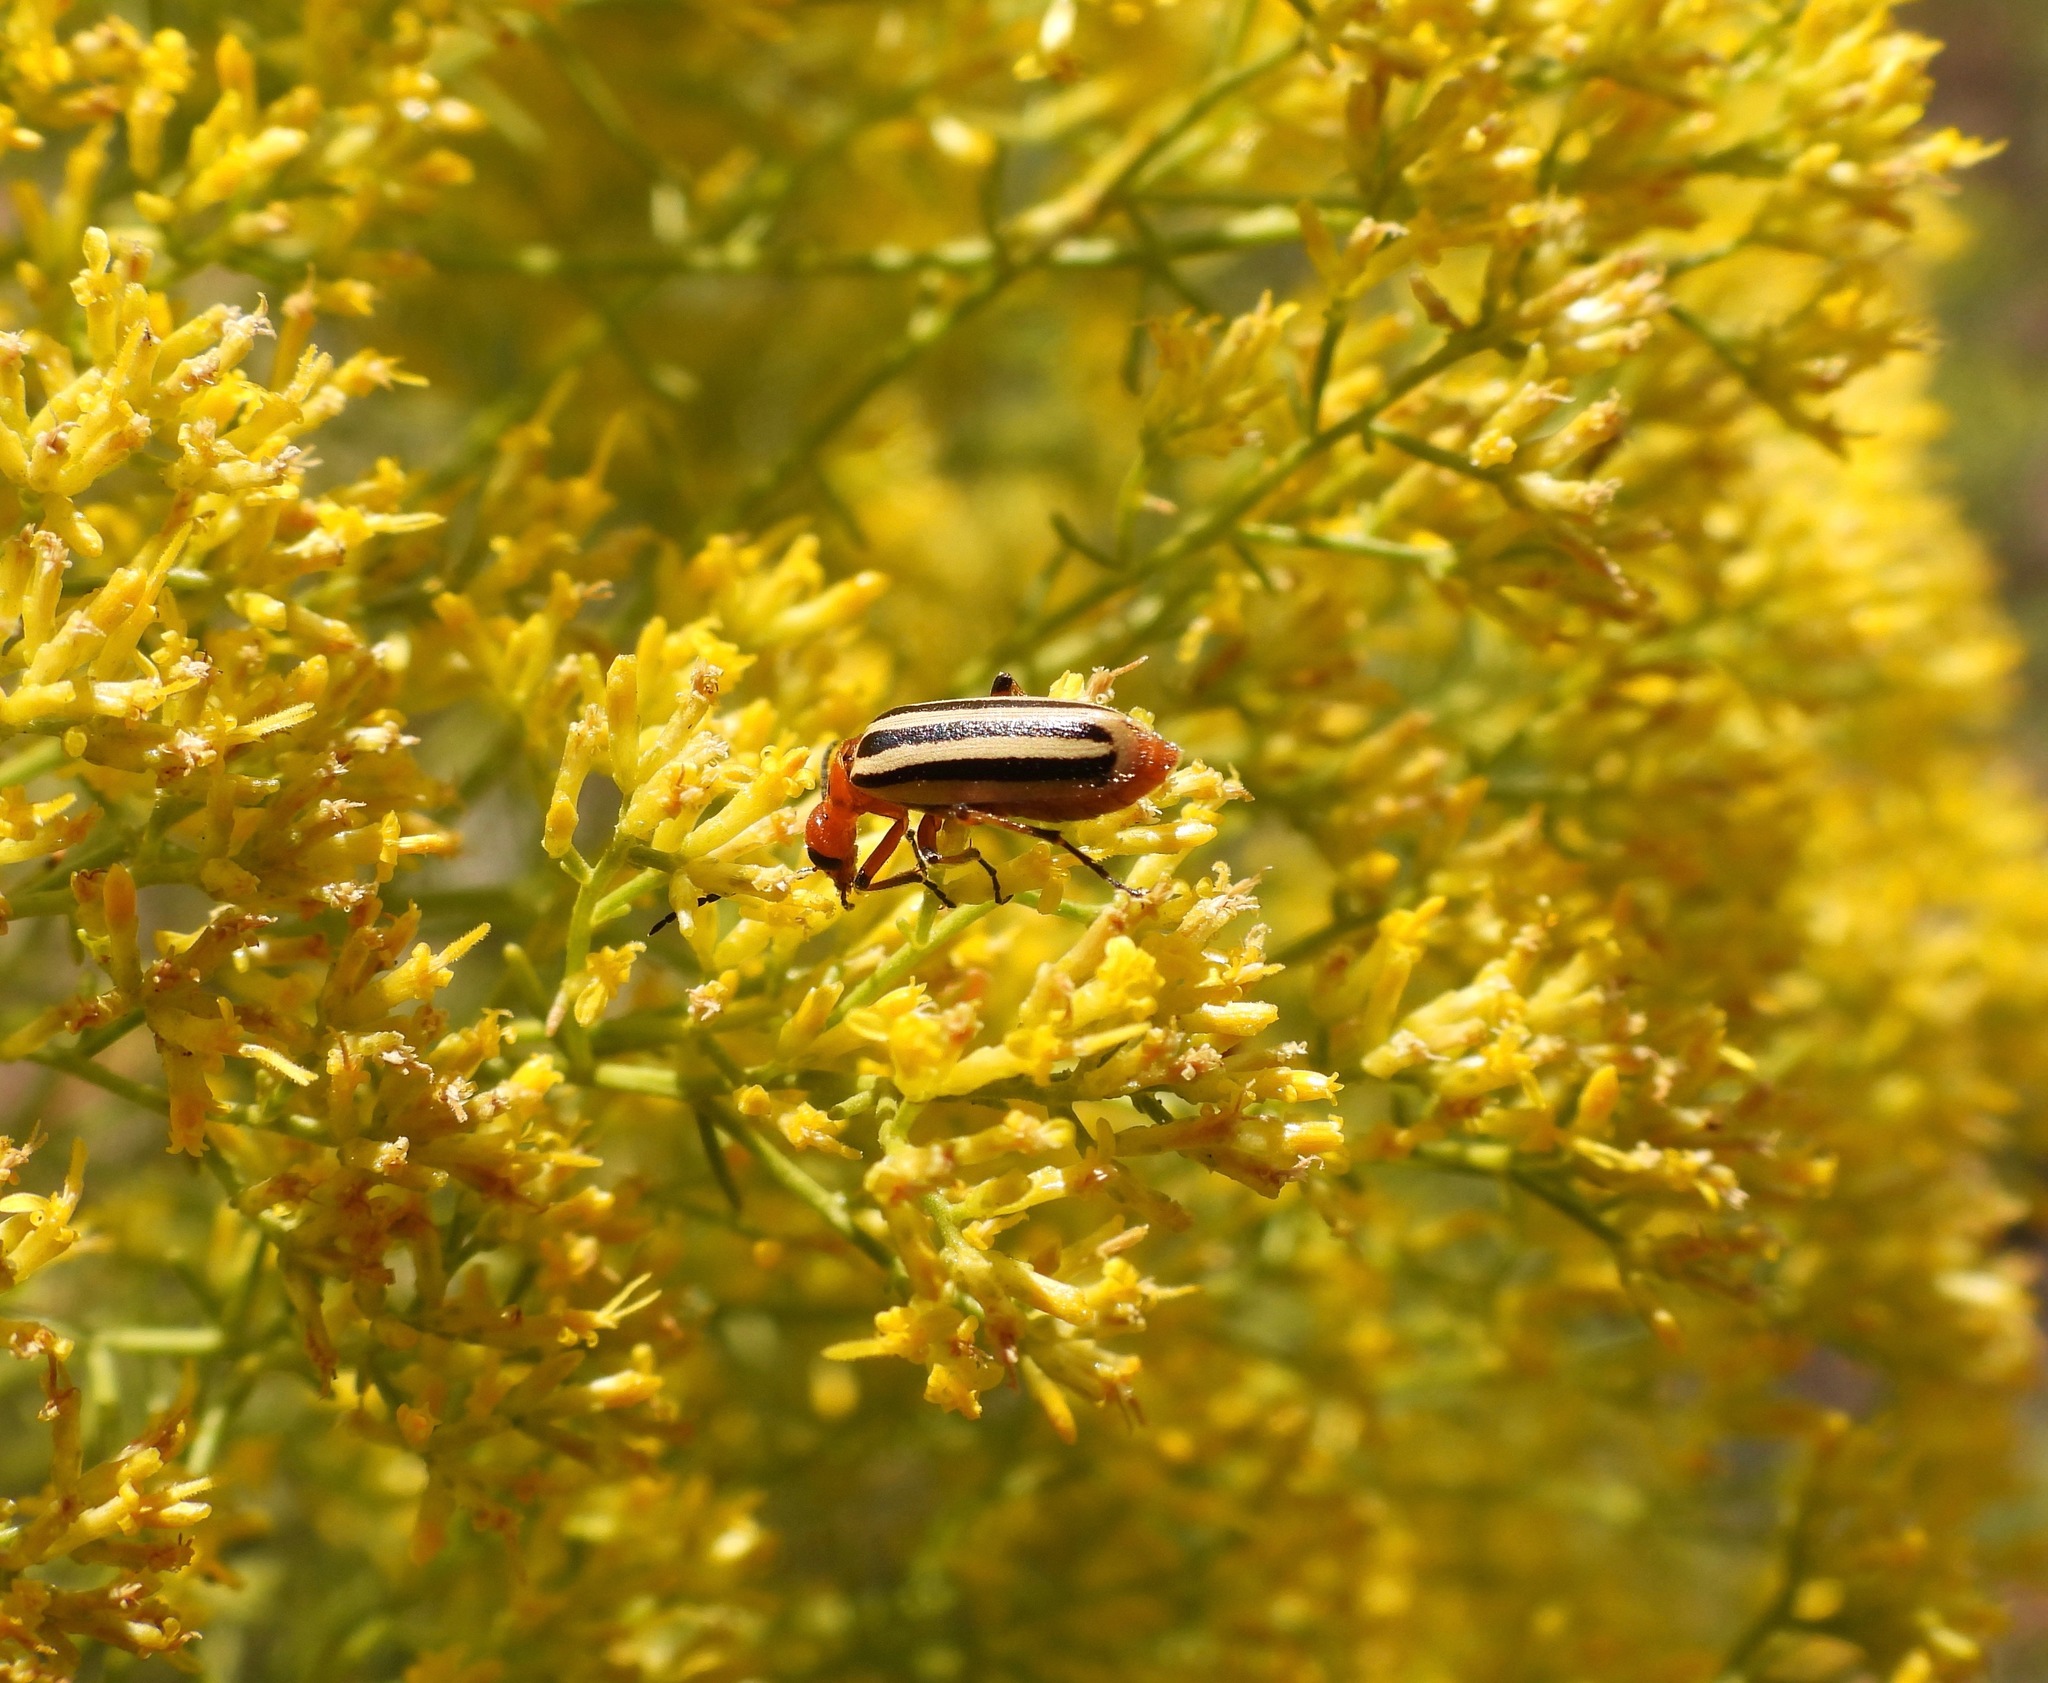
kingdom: Animalia
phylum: Arthropoda
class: Insecta
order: Coleoptera
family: Meloidae
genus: Pyrota
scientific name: Pyrota bilineata
